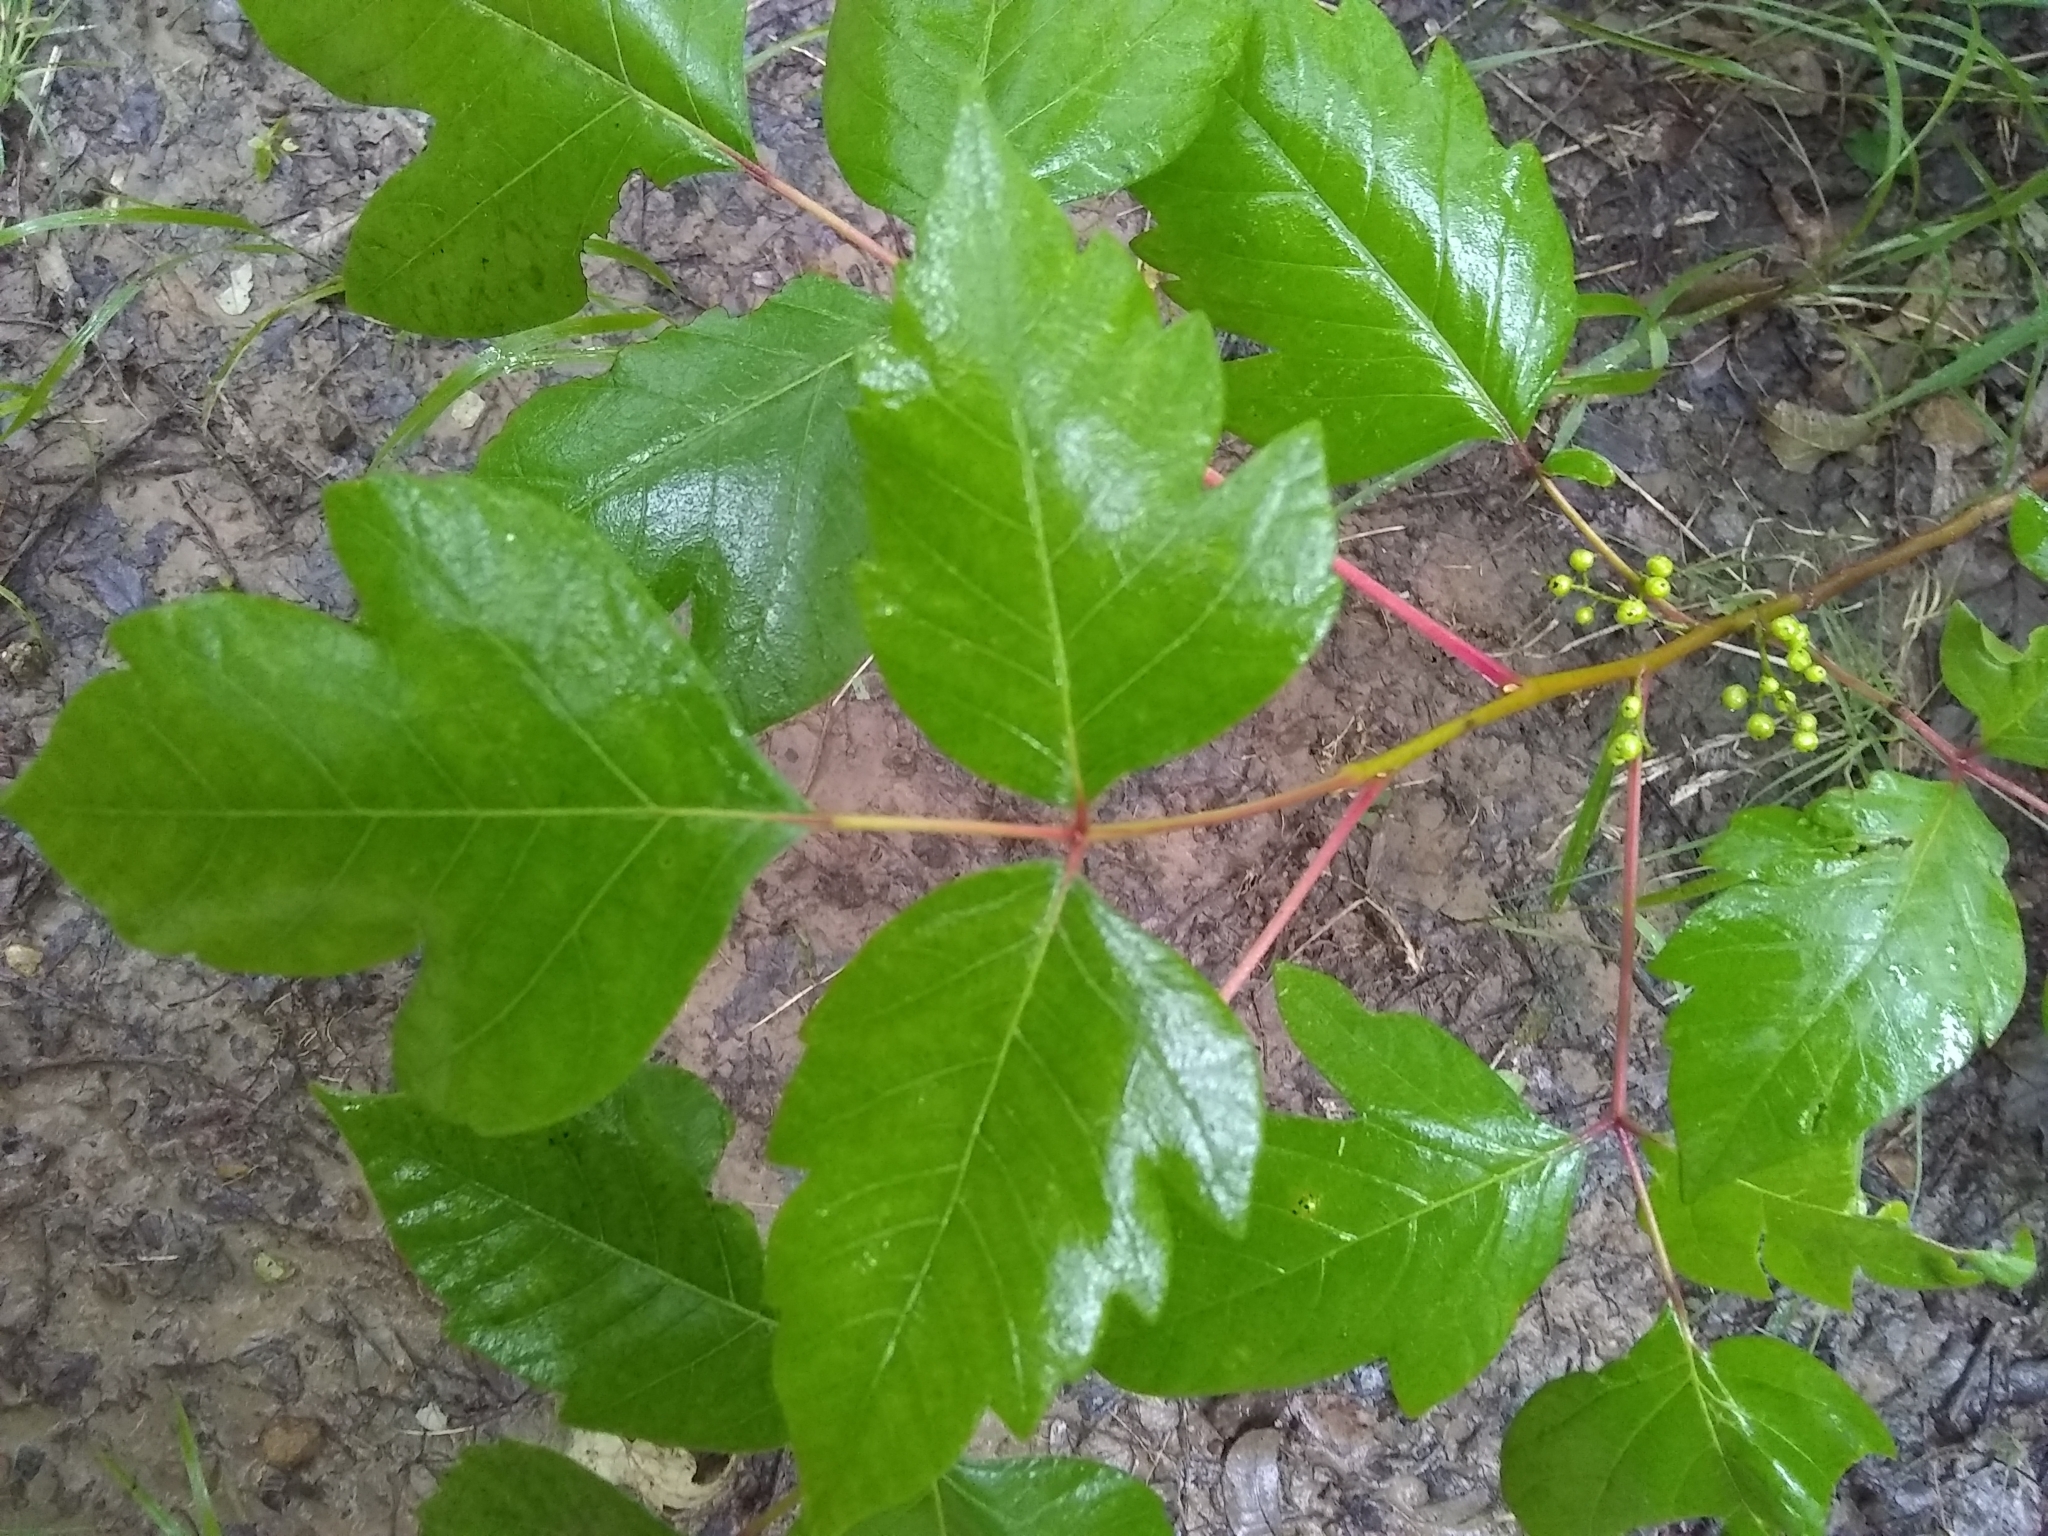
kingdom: Plantae
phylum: Tracheophyta
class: Magnoliopsida
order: Sapindales
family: Anacardiaceae
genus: Toxicodendron
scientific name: Toxicodendron radicans
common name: Poison ivy
